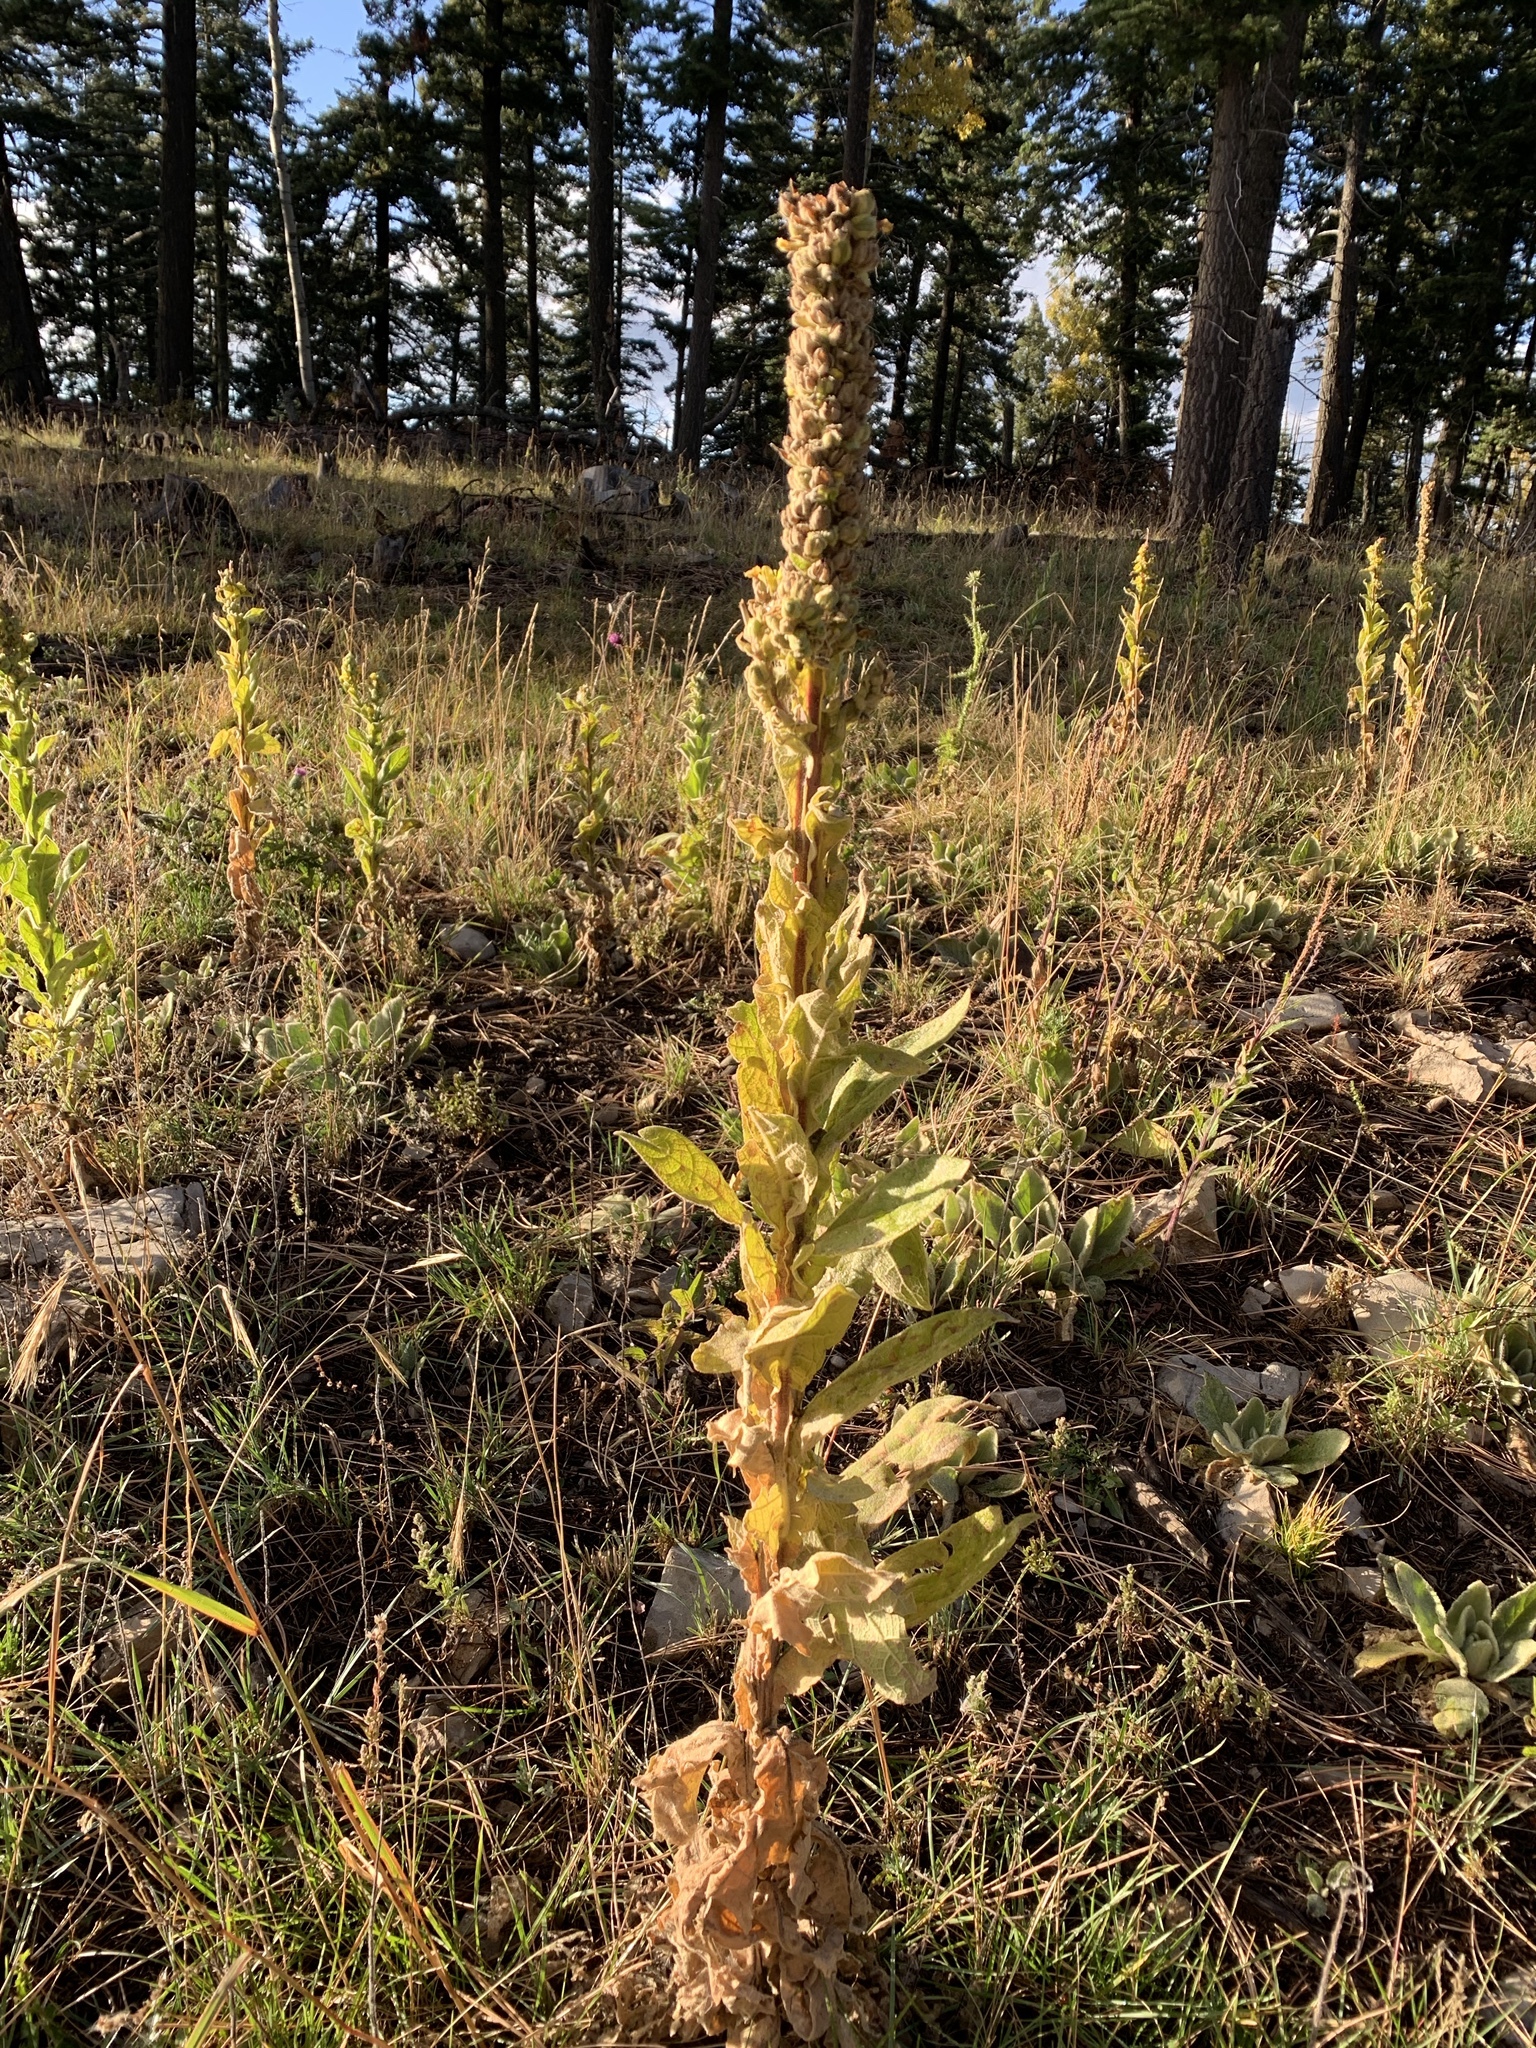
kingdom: Plantae
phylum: Tracheophyta
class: Magnoliopsida
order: Lamiales
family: Scrophulariaceae
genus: Verbascum
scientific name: Verbascum thapsus
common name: Common mullein
